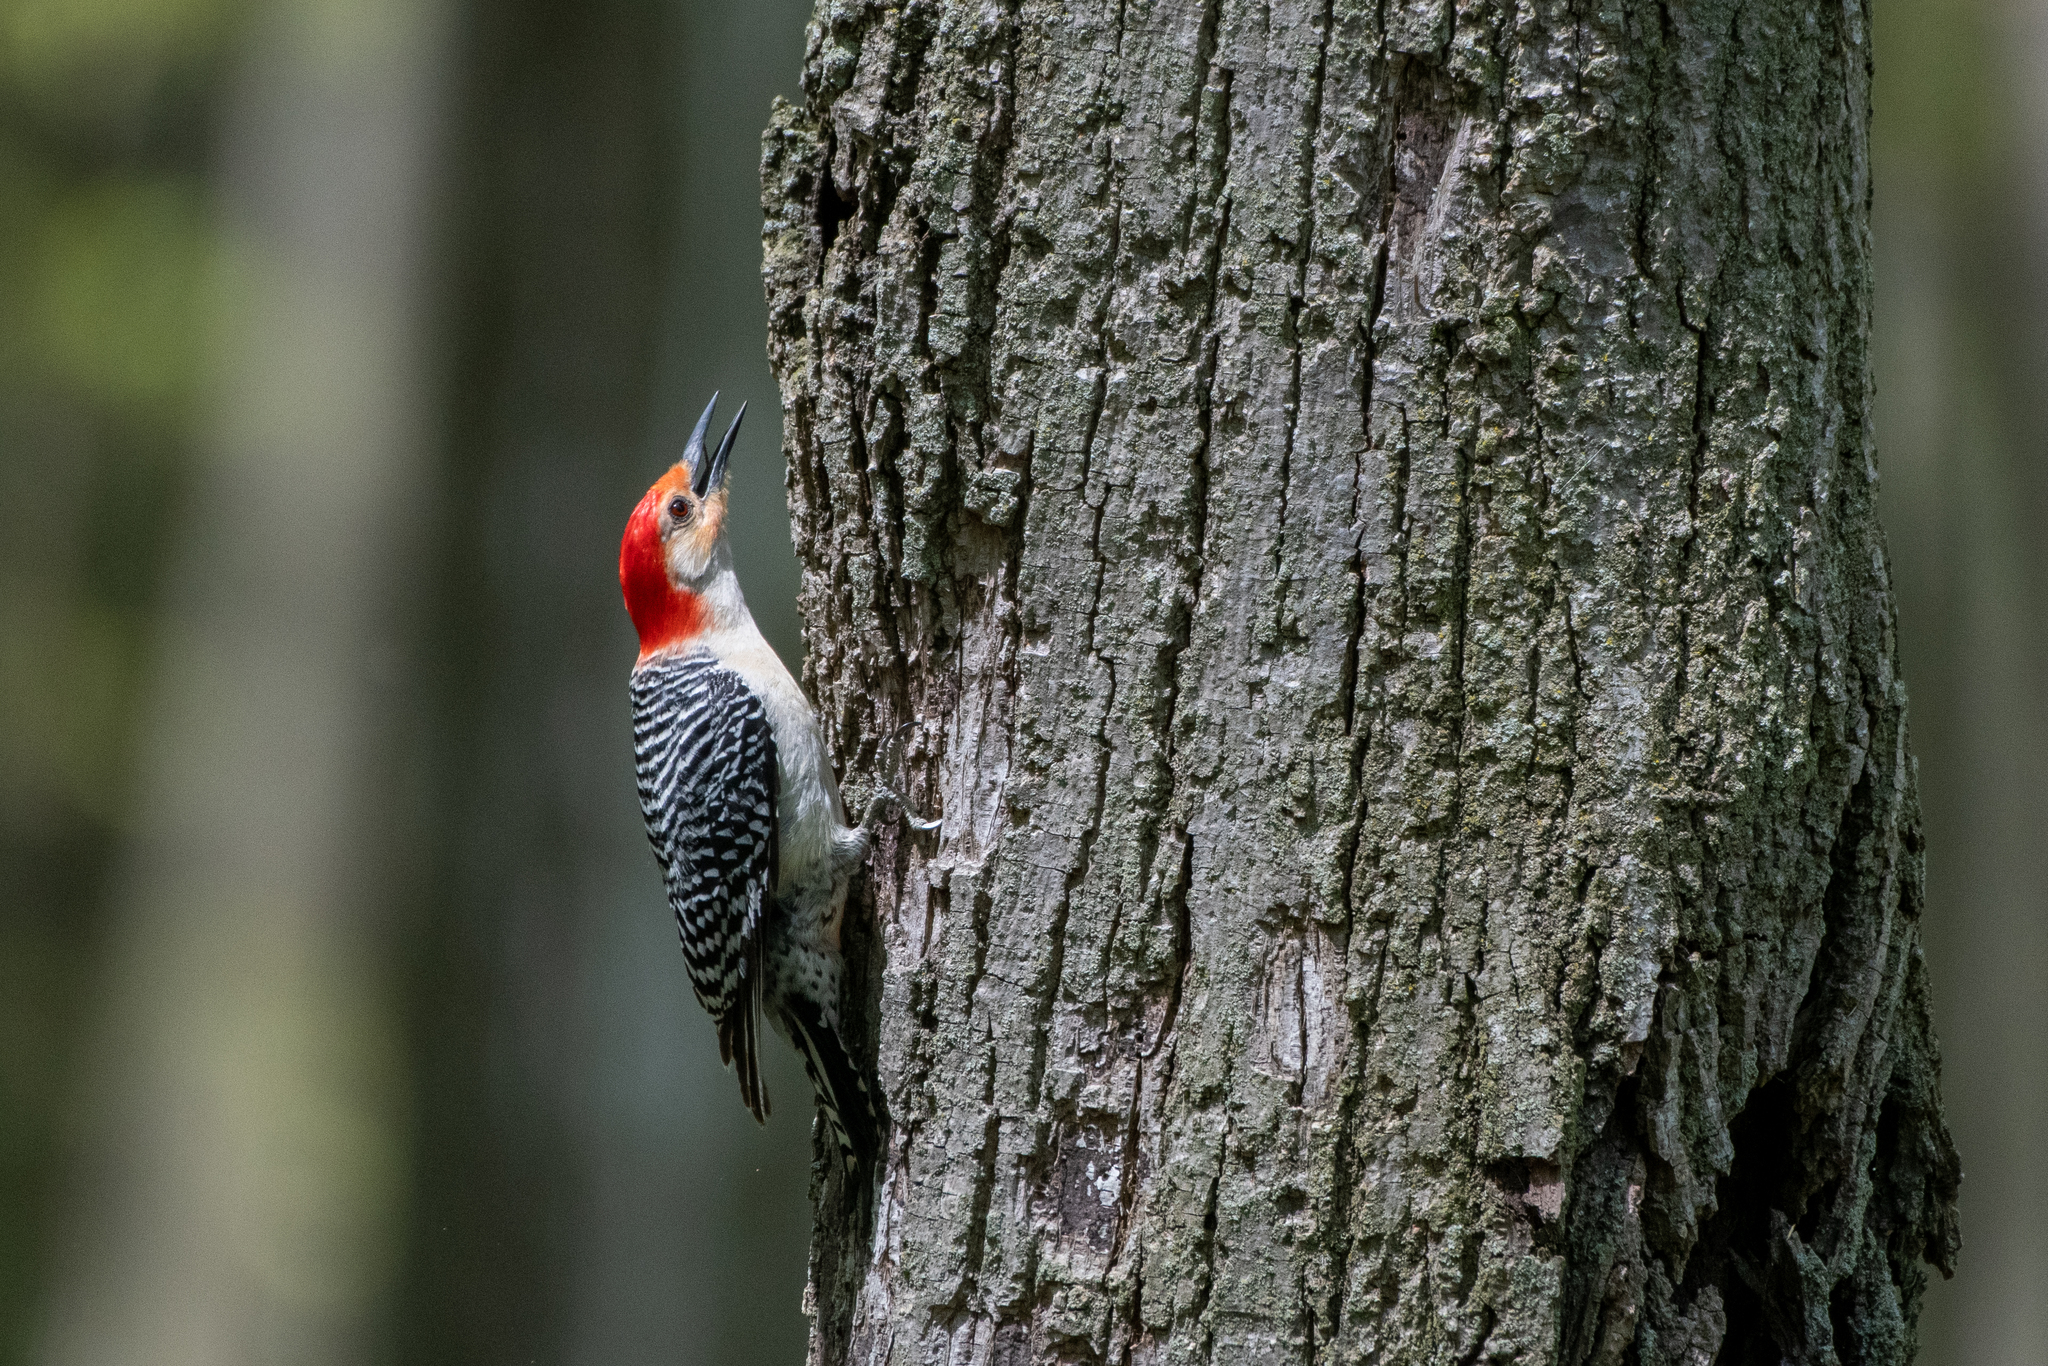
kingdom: Animalia
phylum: Chordata
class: Aves
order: Piciformes
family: Picidae
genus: Melanerpes
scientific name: Melanerpes carolinus
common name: Red-bellied woodpecker
